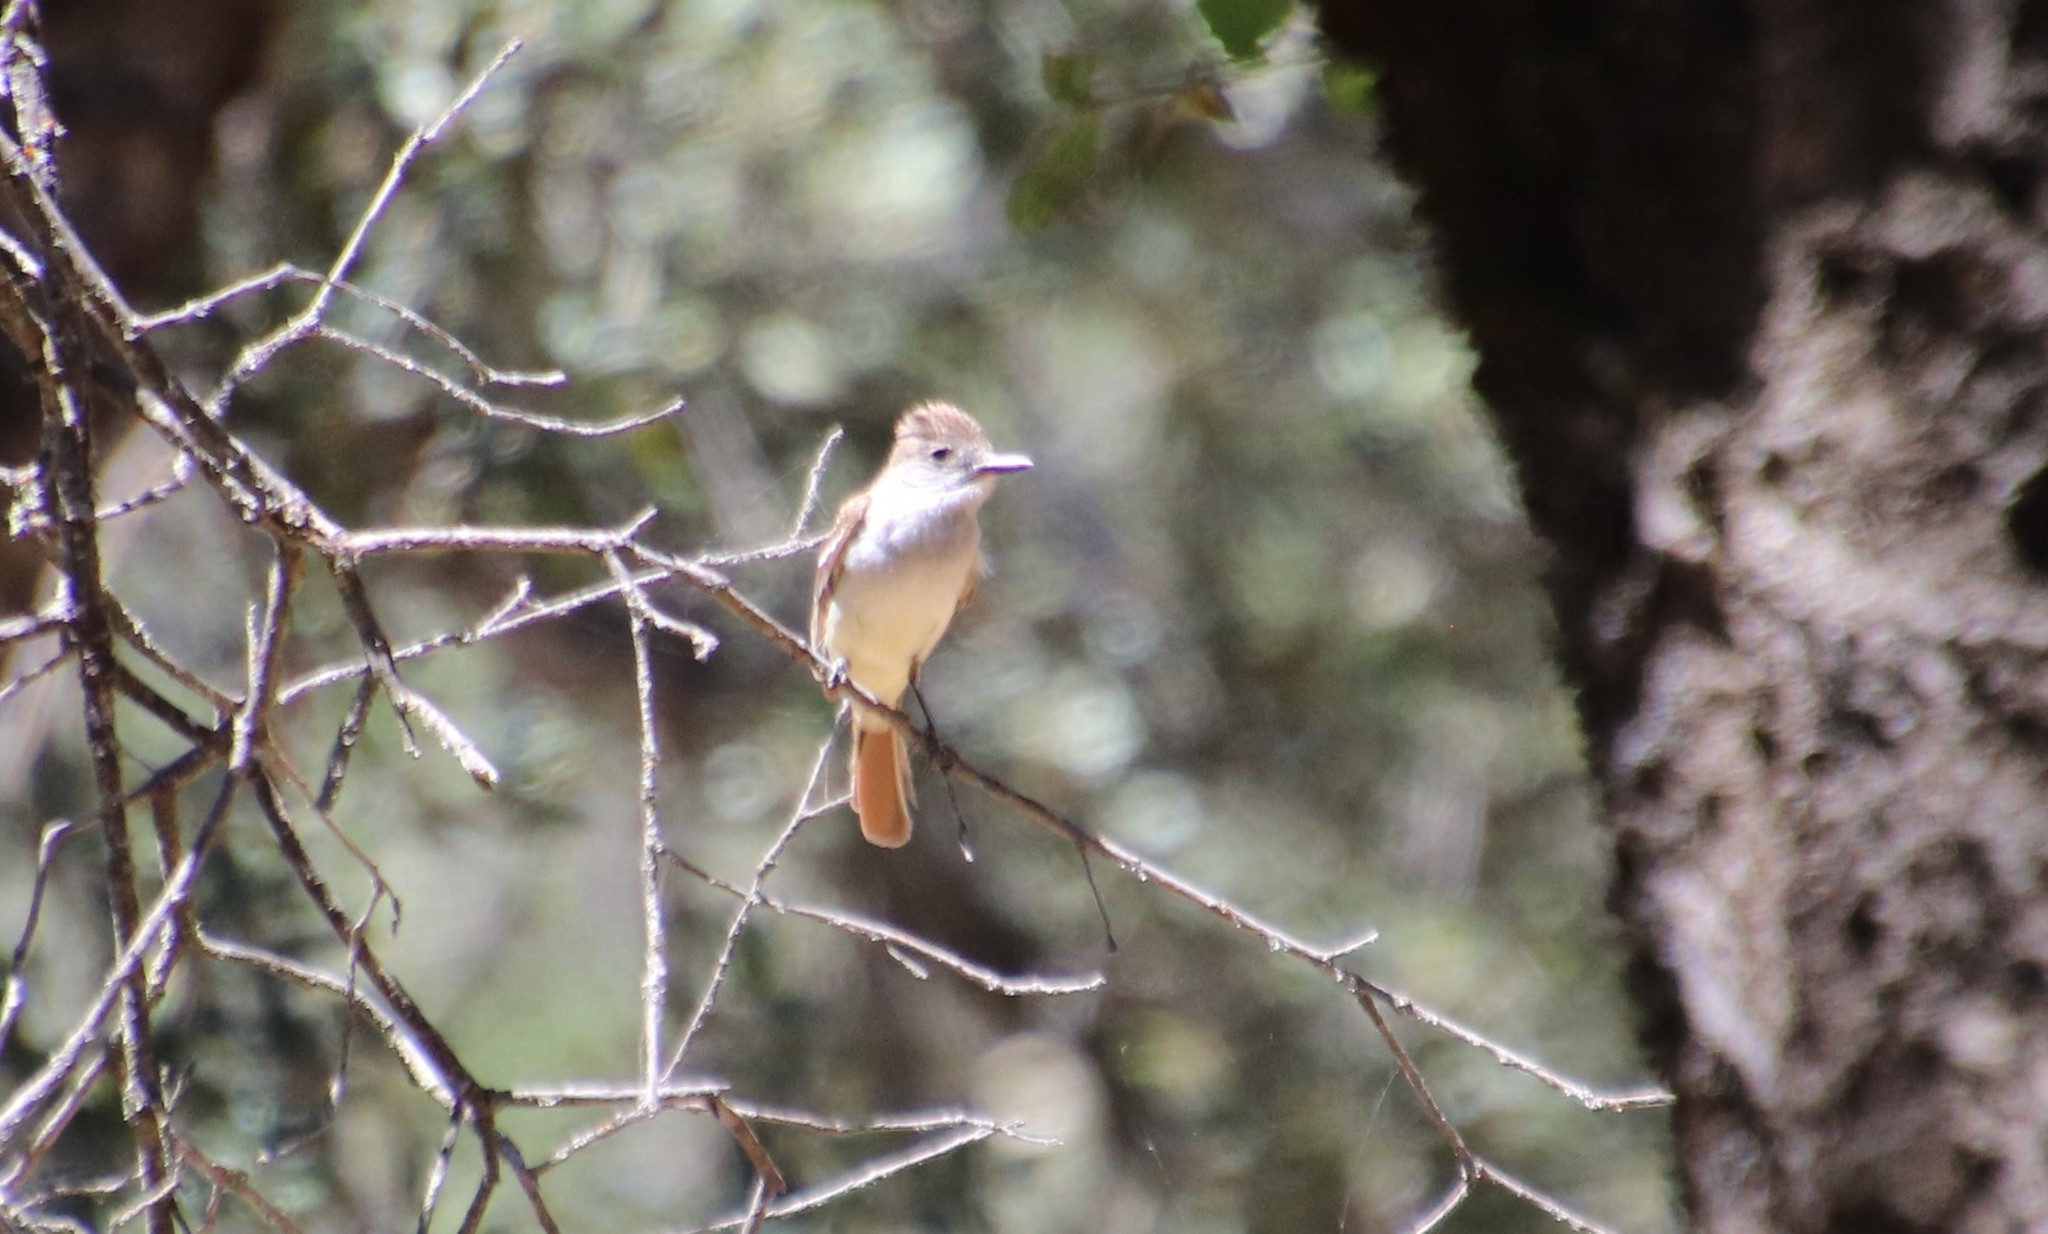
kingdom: Animalia
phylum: Chordata
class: Aves
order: Passeriformes
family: Tyrannidae
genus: Myiarchus
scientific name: Myiarchus cinerascens
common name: Ash-throated flycatcher
